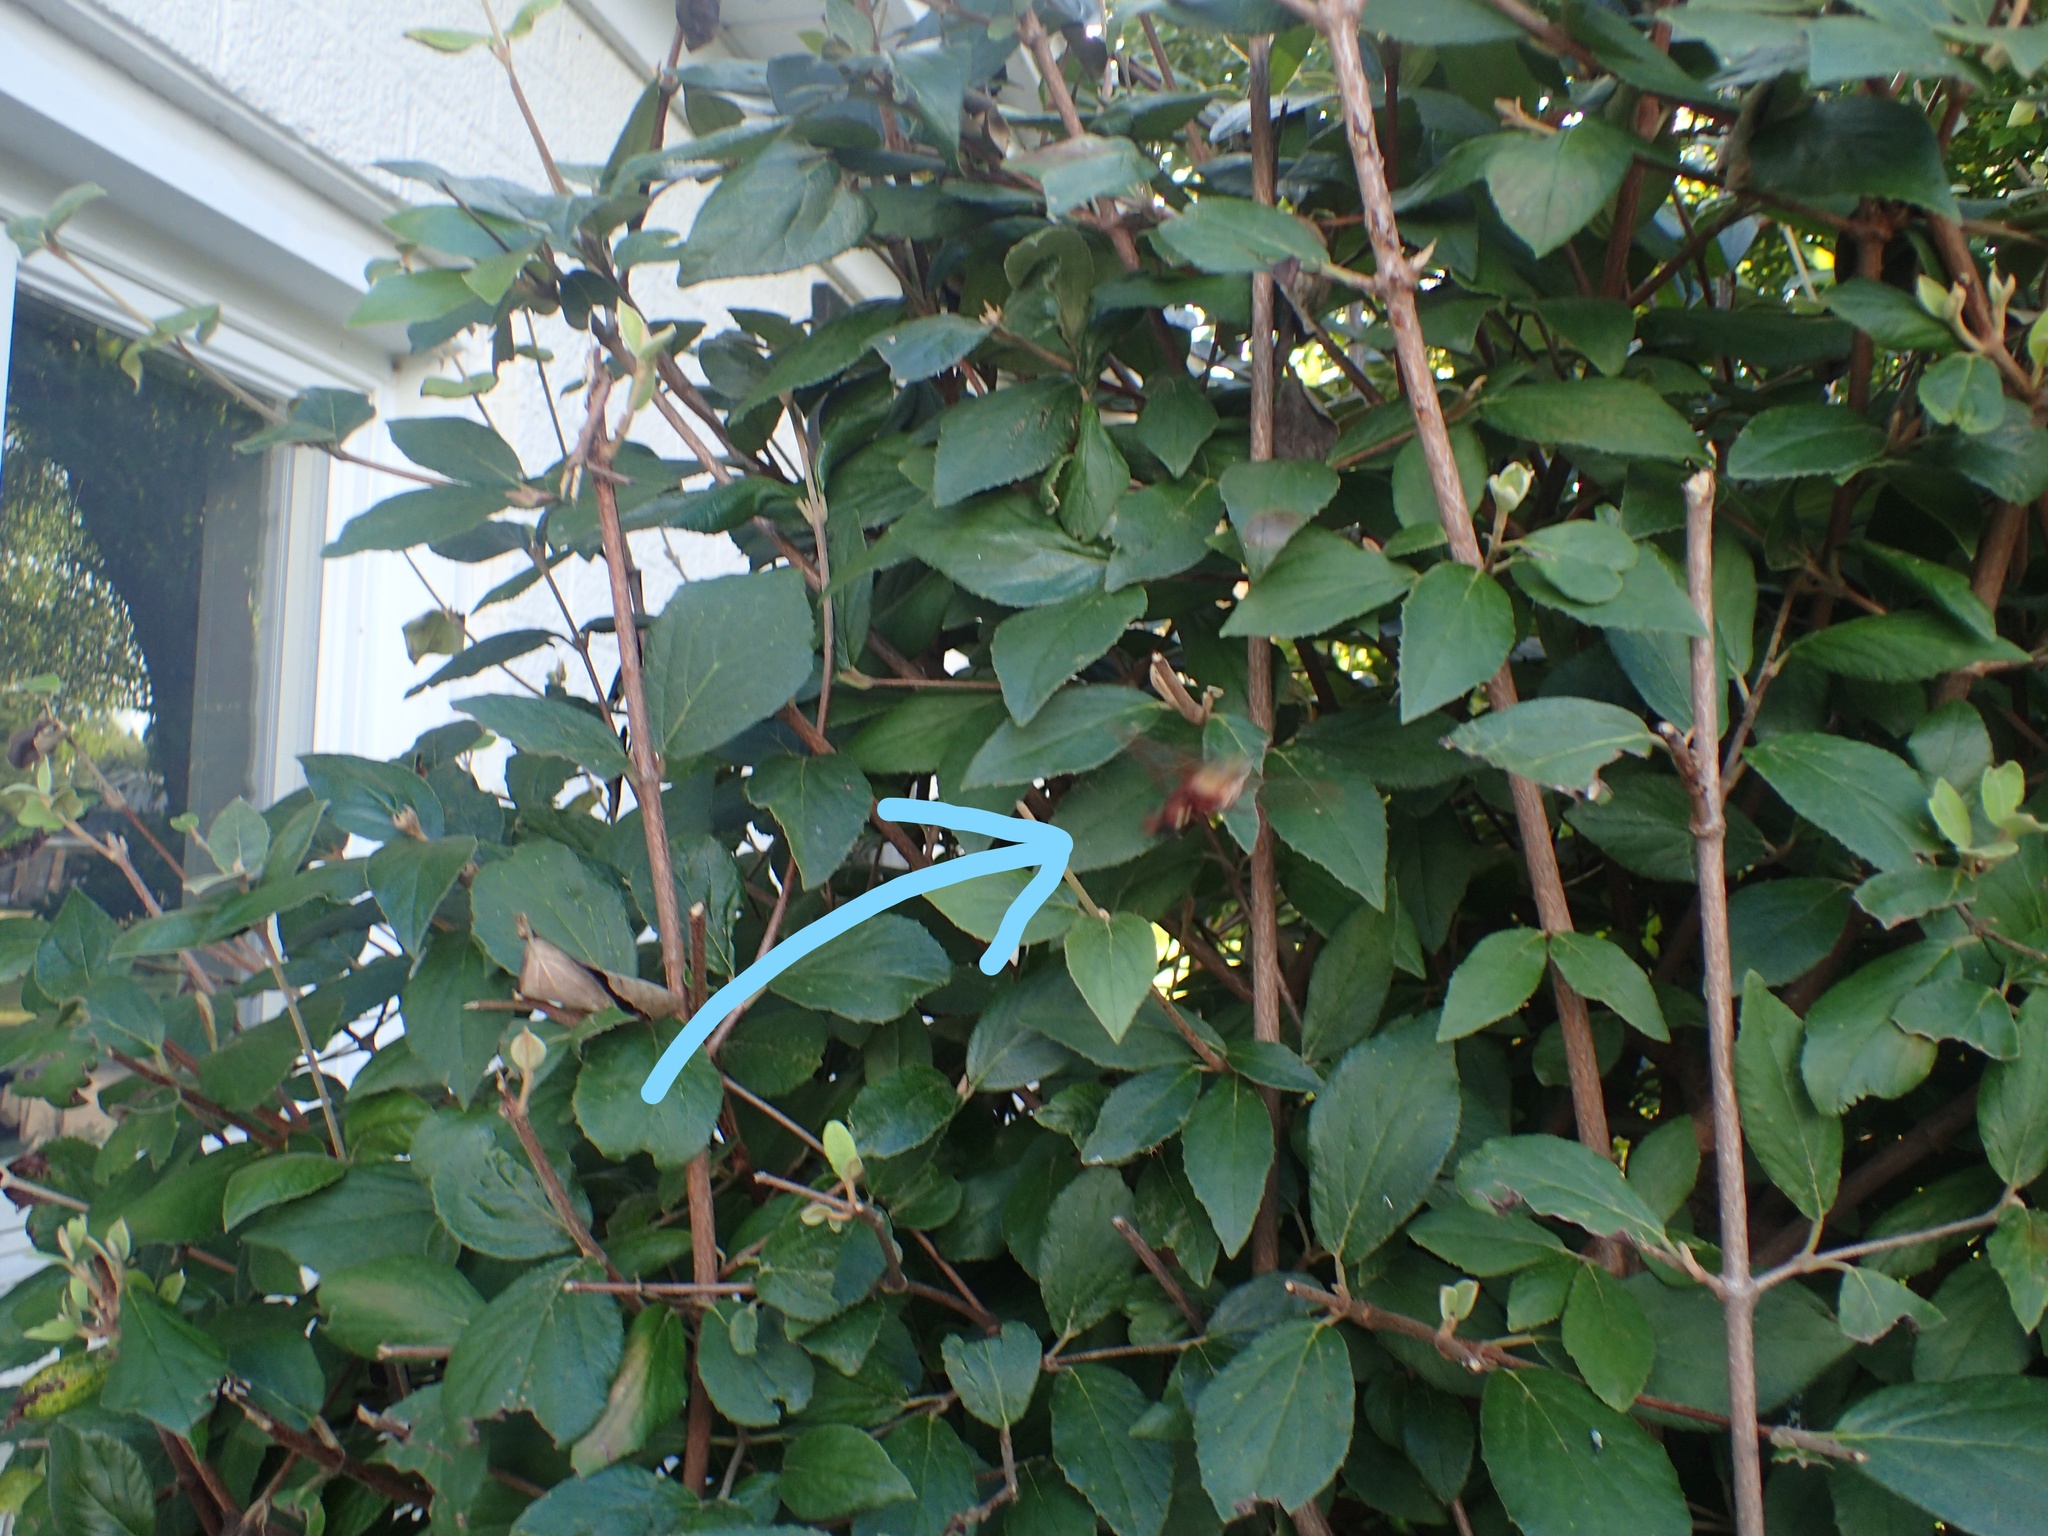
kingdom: Animalia
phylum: Arthropoda
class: Insecta
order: Lepidoptera
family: Sphingidae
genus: Hemaris
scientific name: Hemaris thysbe
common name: Common clear-wing
